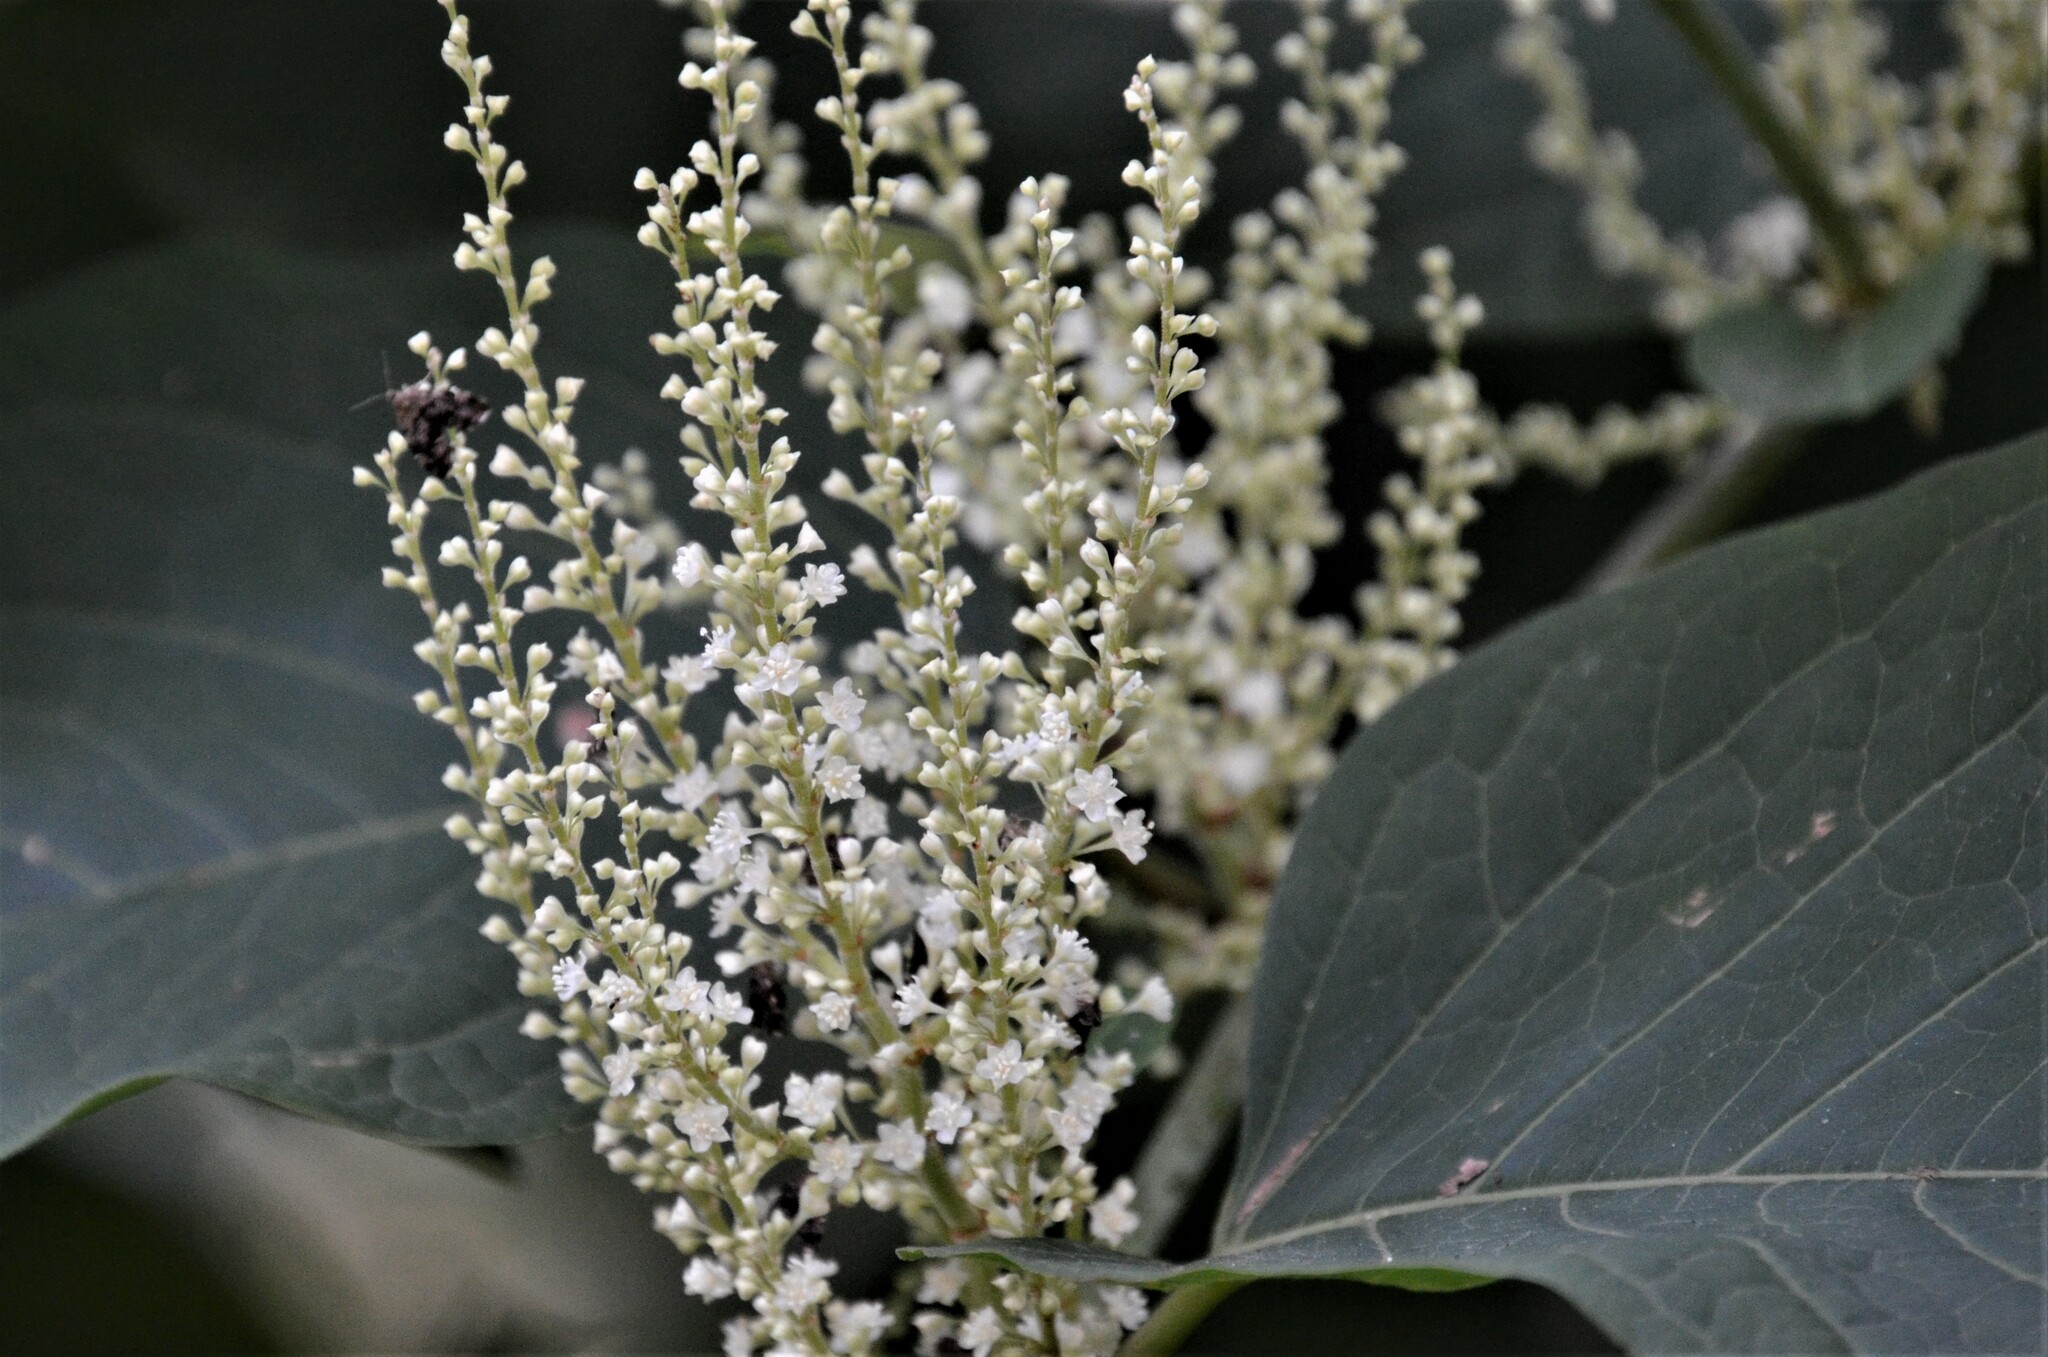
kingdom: Plantae
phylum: Tracheophyta
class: Magnoliopsida
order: Caryophyllales
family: Polygonaceae
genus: Reynoutria
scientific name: Reynoutria bohemica
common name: Bohemian knotweed
